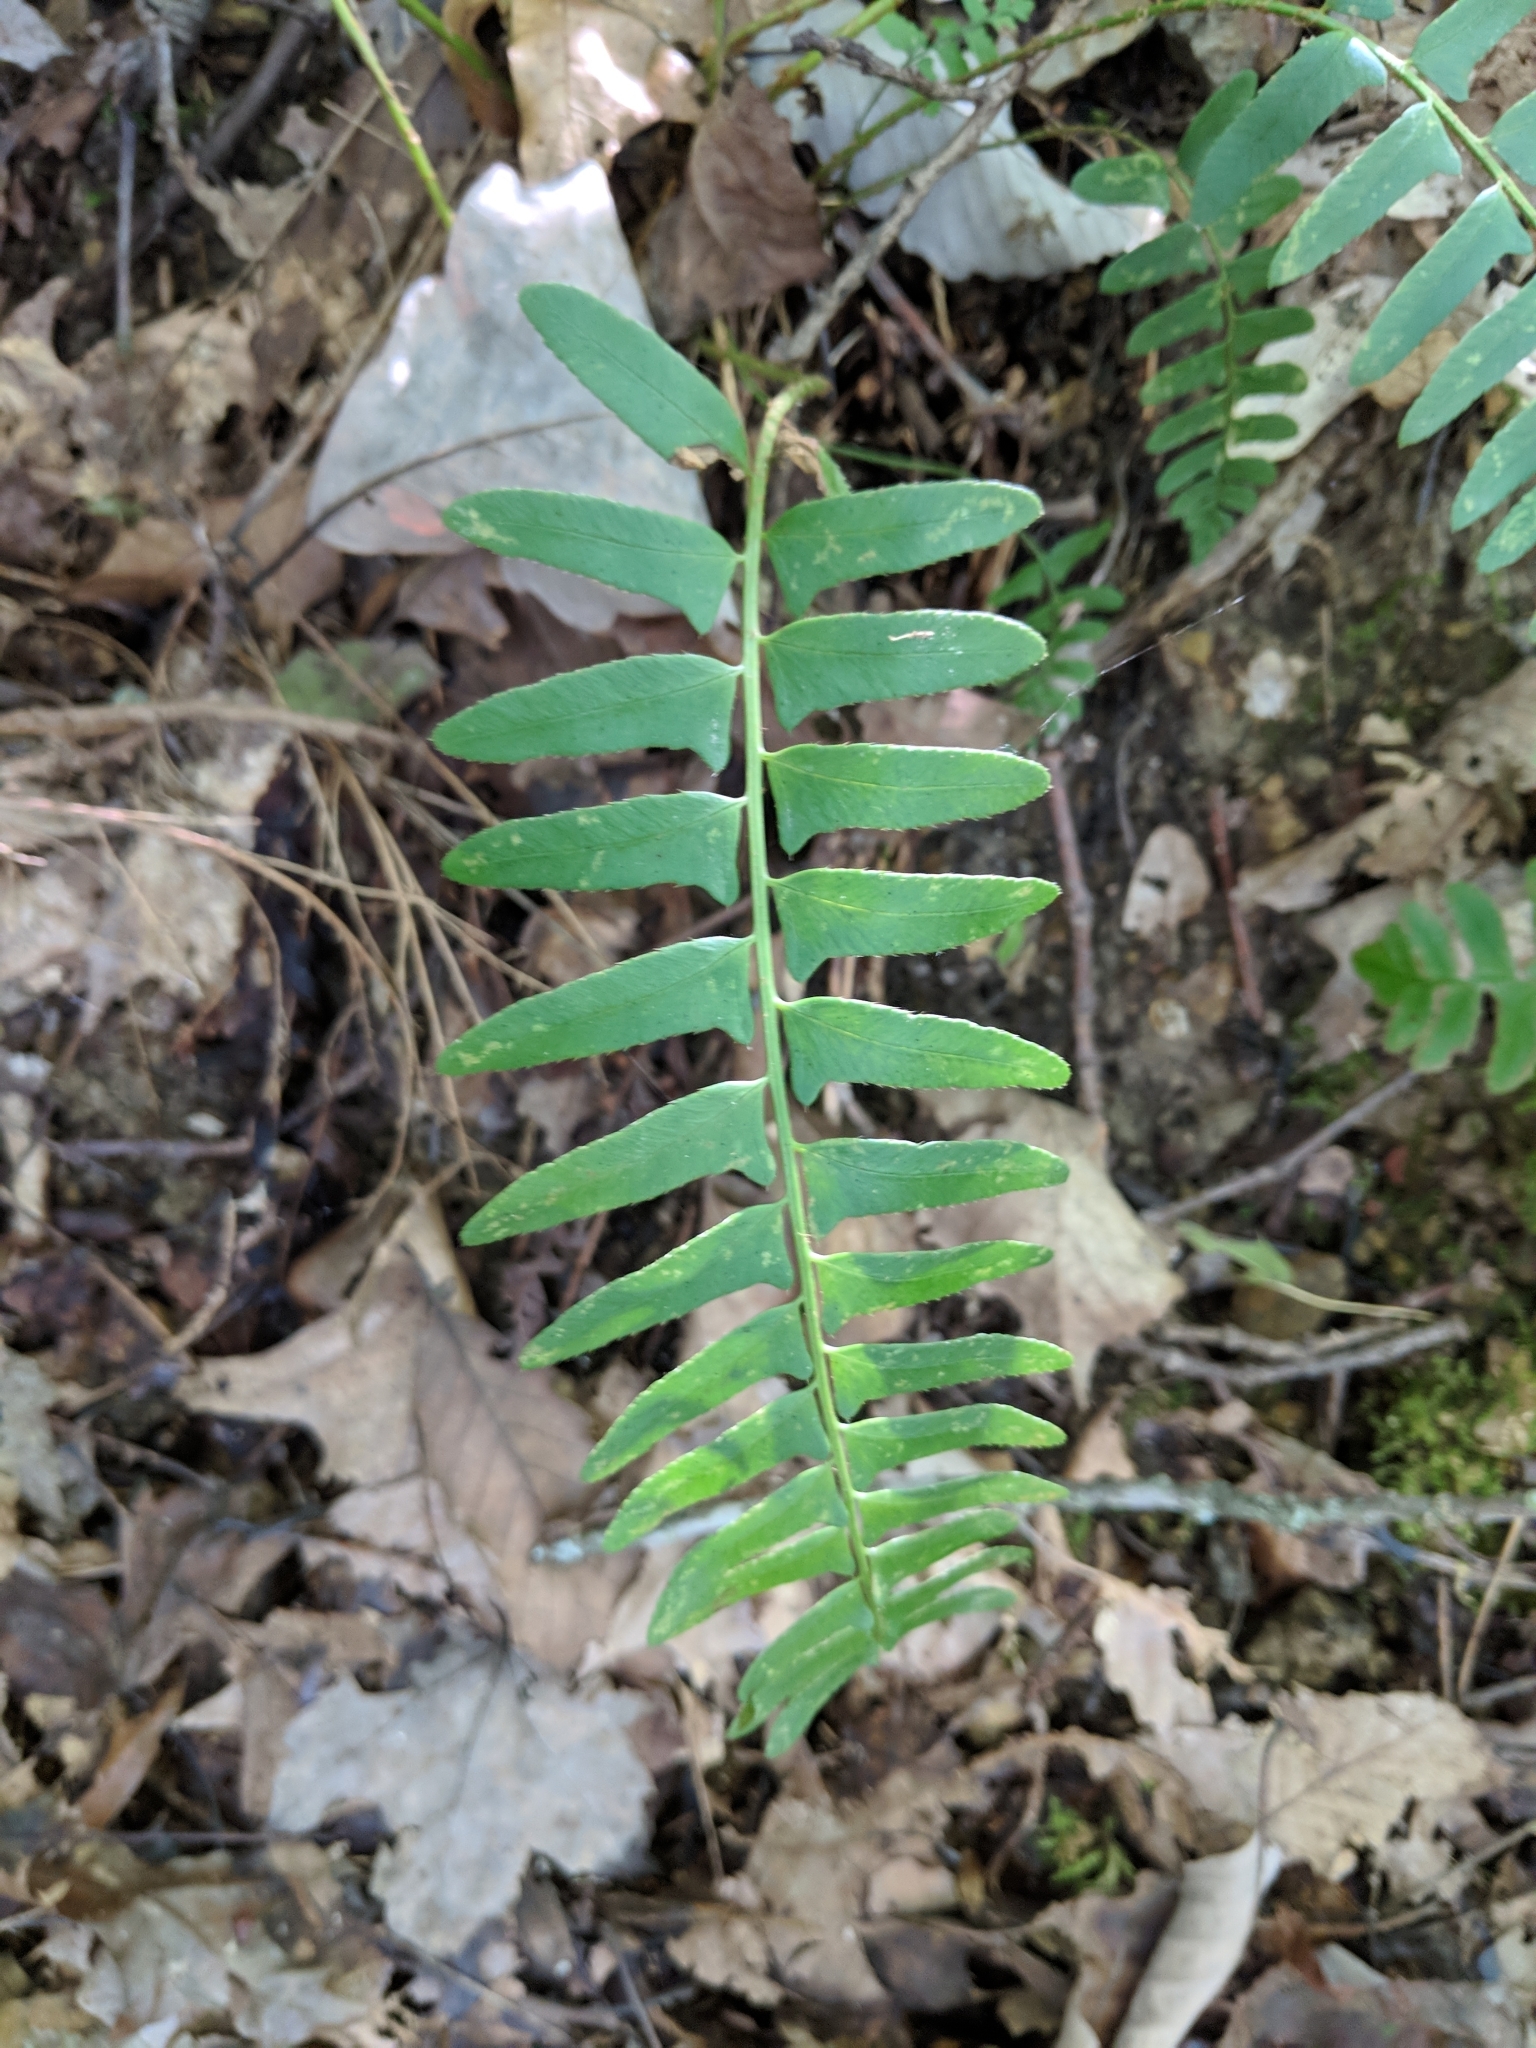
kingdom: Plantae
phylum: Tracheophyta
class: Polypodiopsida
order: Polypodiales
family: Dryopteridaceae
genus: Polystichum
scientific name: Polystichum acrostichoides
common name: Christmas fern
